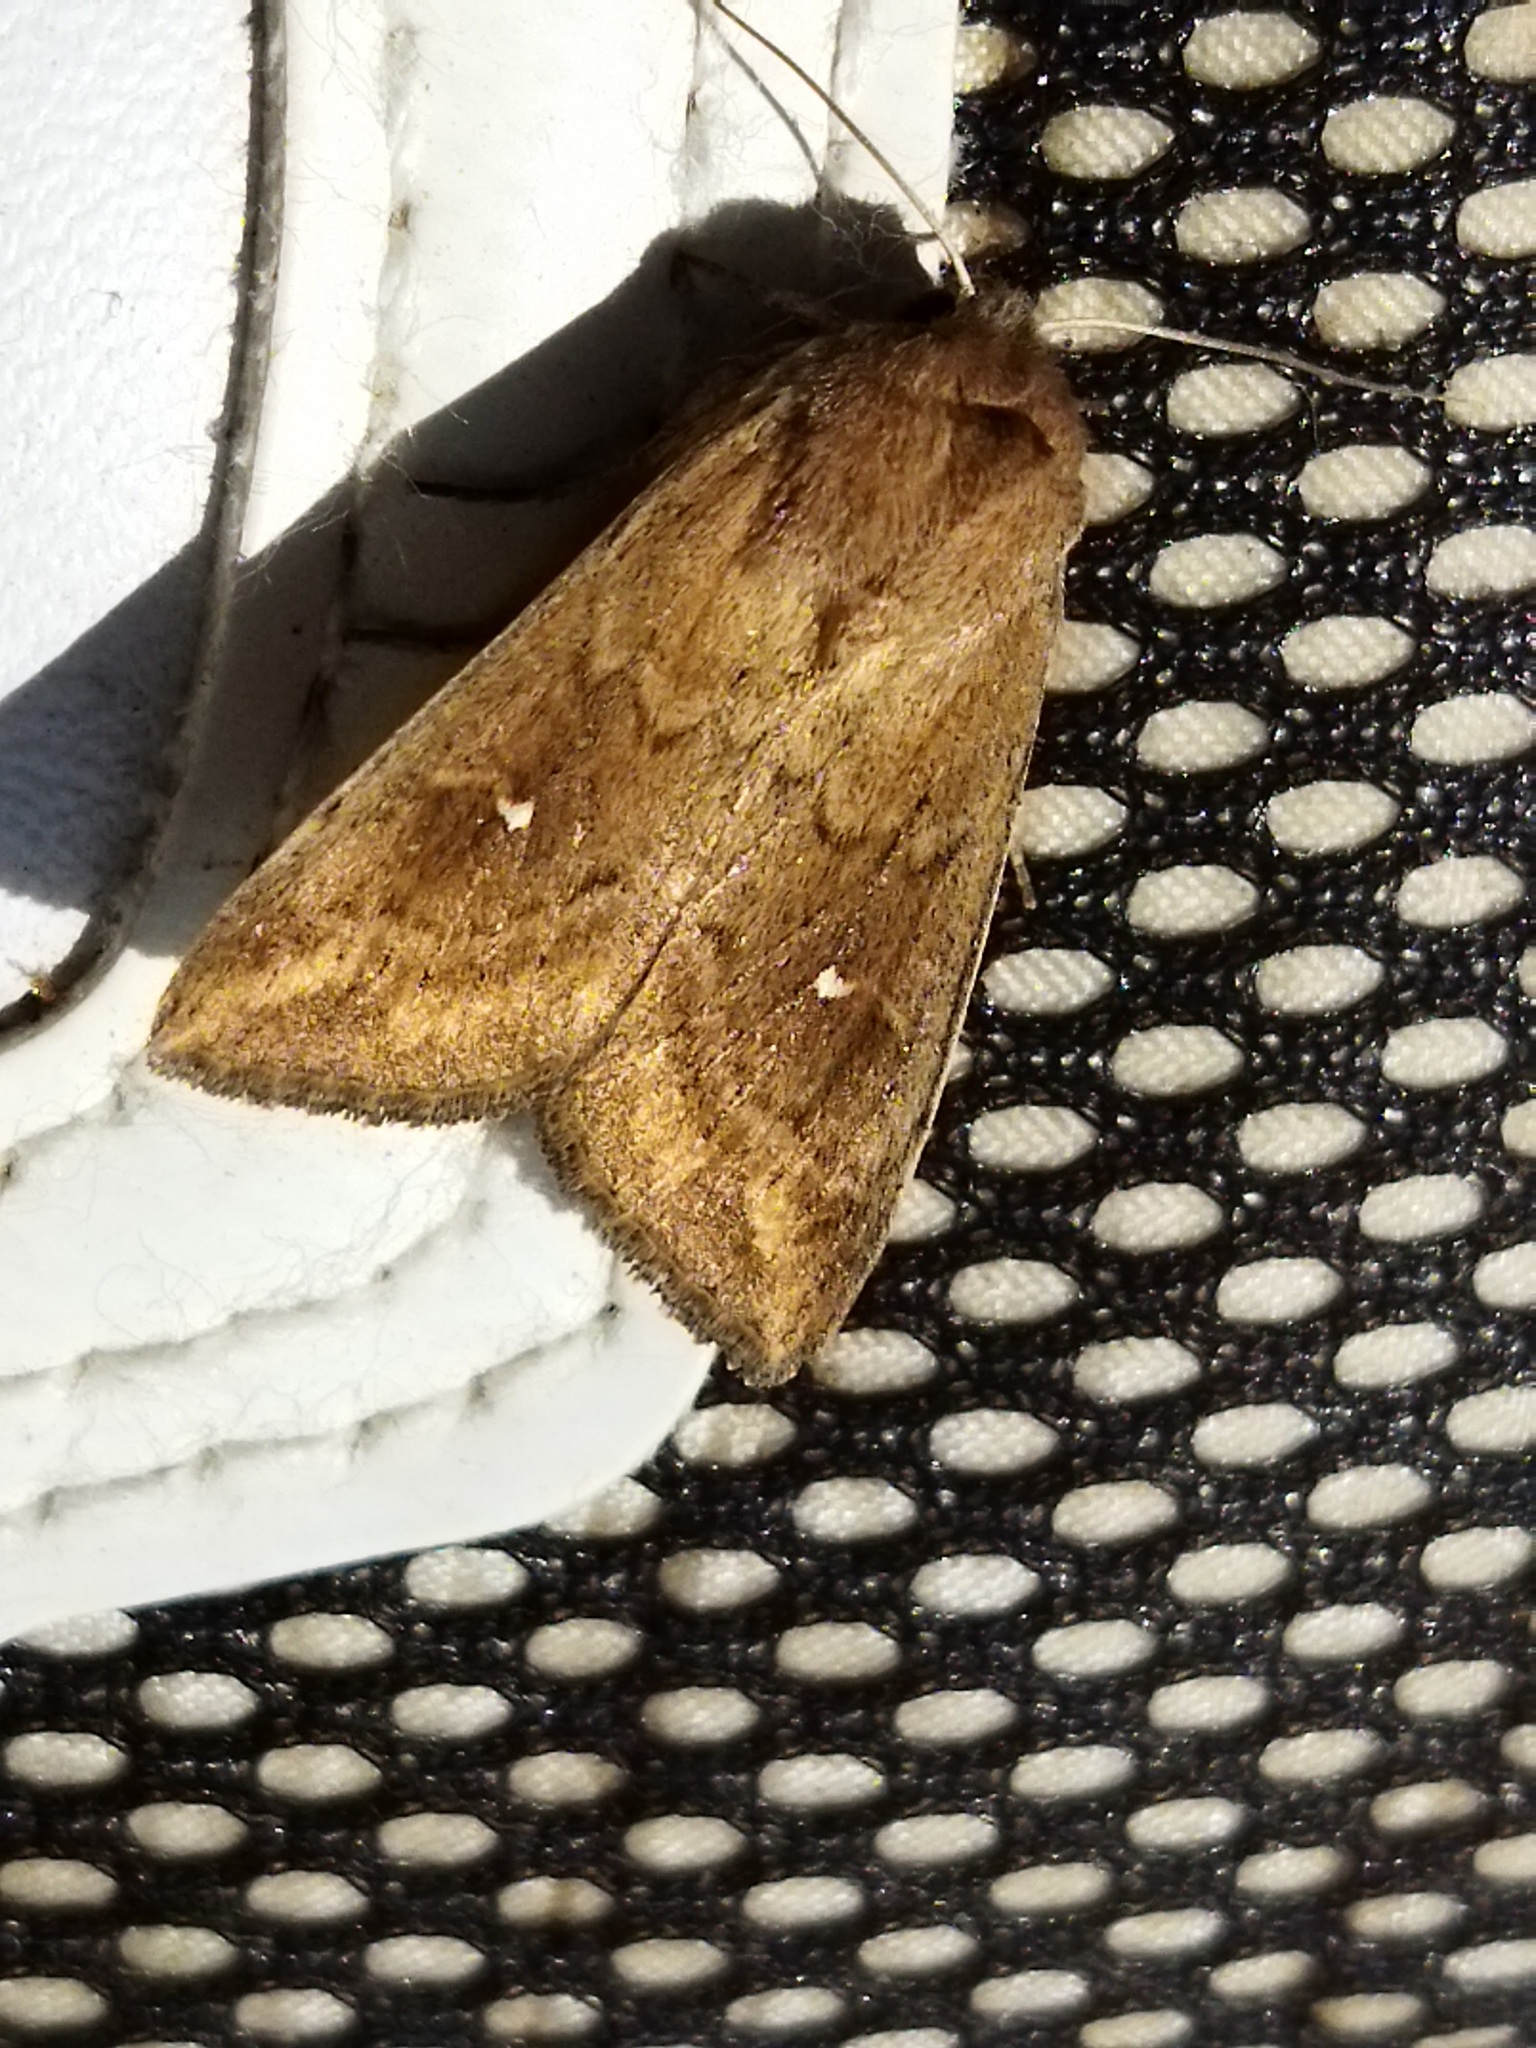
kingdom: Animalia
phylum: Arthropoda
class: Insecta
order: Lepidoptera
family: Noctuidae
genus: Mythimna
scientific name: Mythimna albipuncta
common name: White-point
